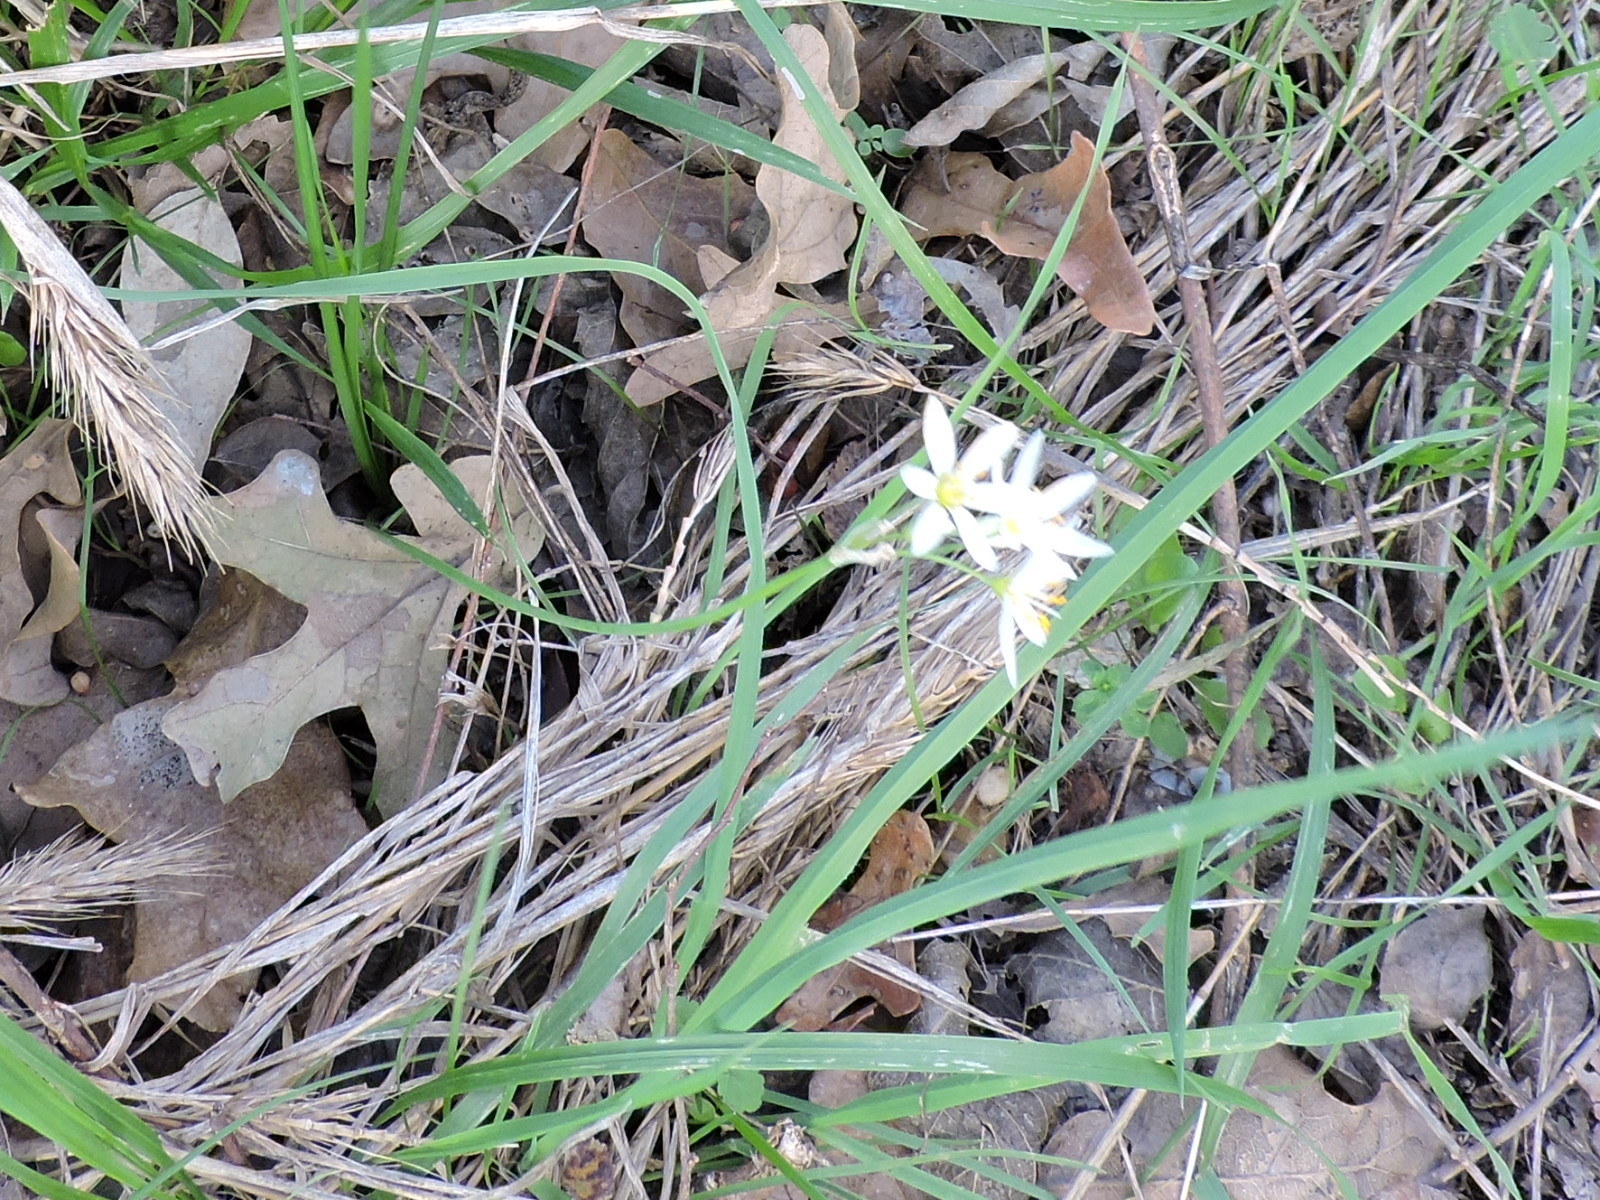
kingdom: Plantae
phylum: Tracheophyta
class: Liliopsida
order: Asparagales
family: Amaryllidaceae
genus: Nothoscordum
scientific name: Nothoscordum bivalve
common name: Crow-poison
